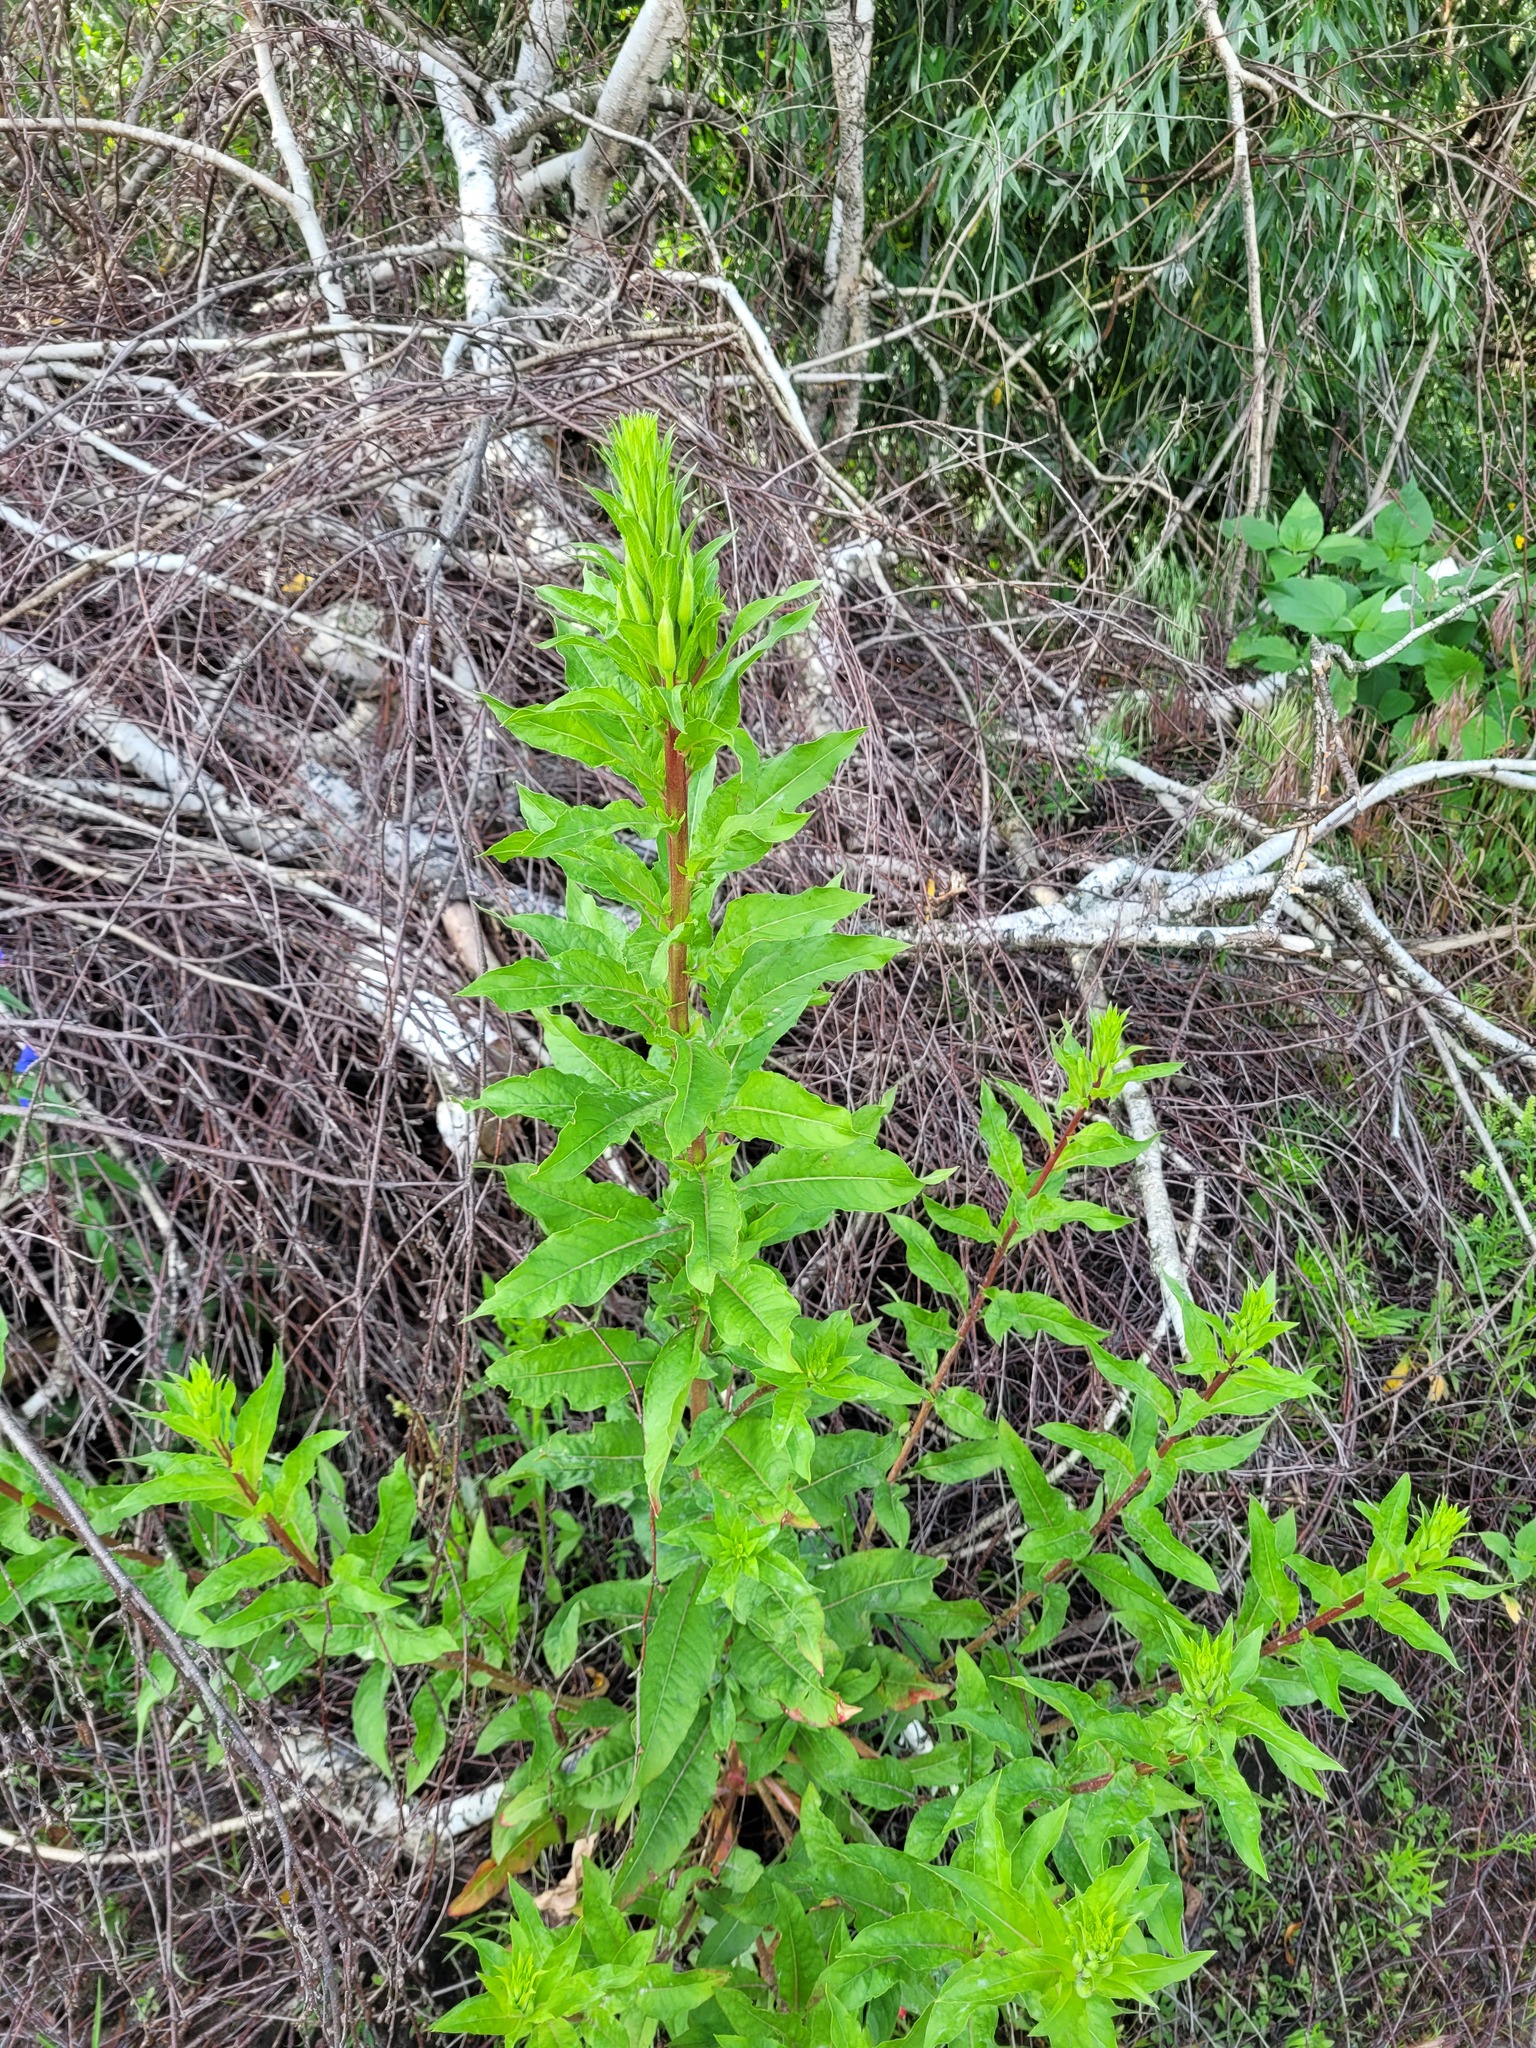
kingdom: Plantae
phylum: Tracheophyta
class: Magnoliopsida
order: Myrtales
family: Onagraceae
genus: Oenothera
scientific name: Oenothera rubricaulis
